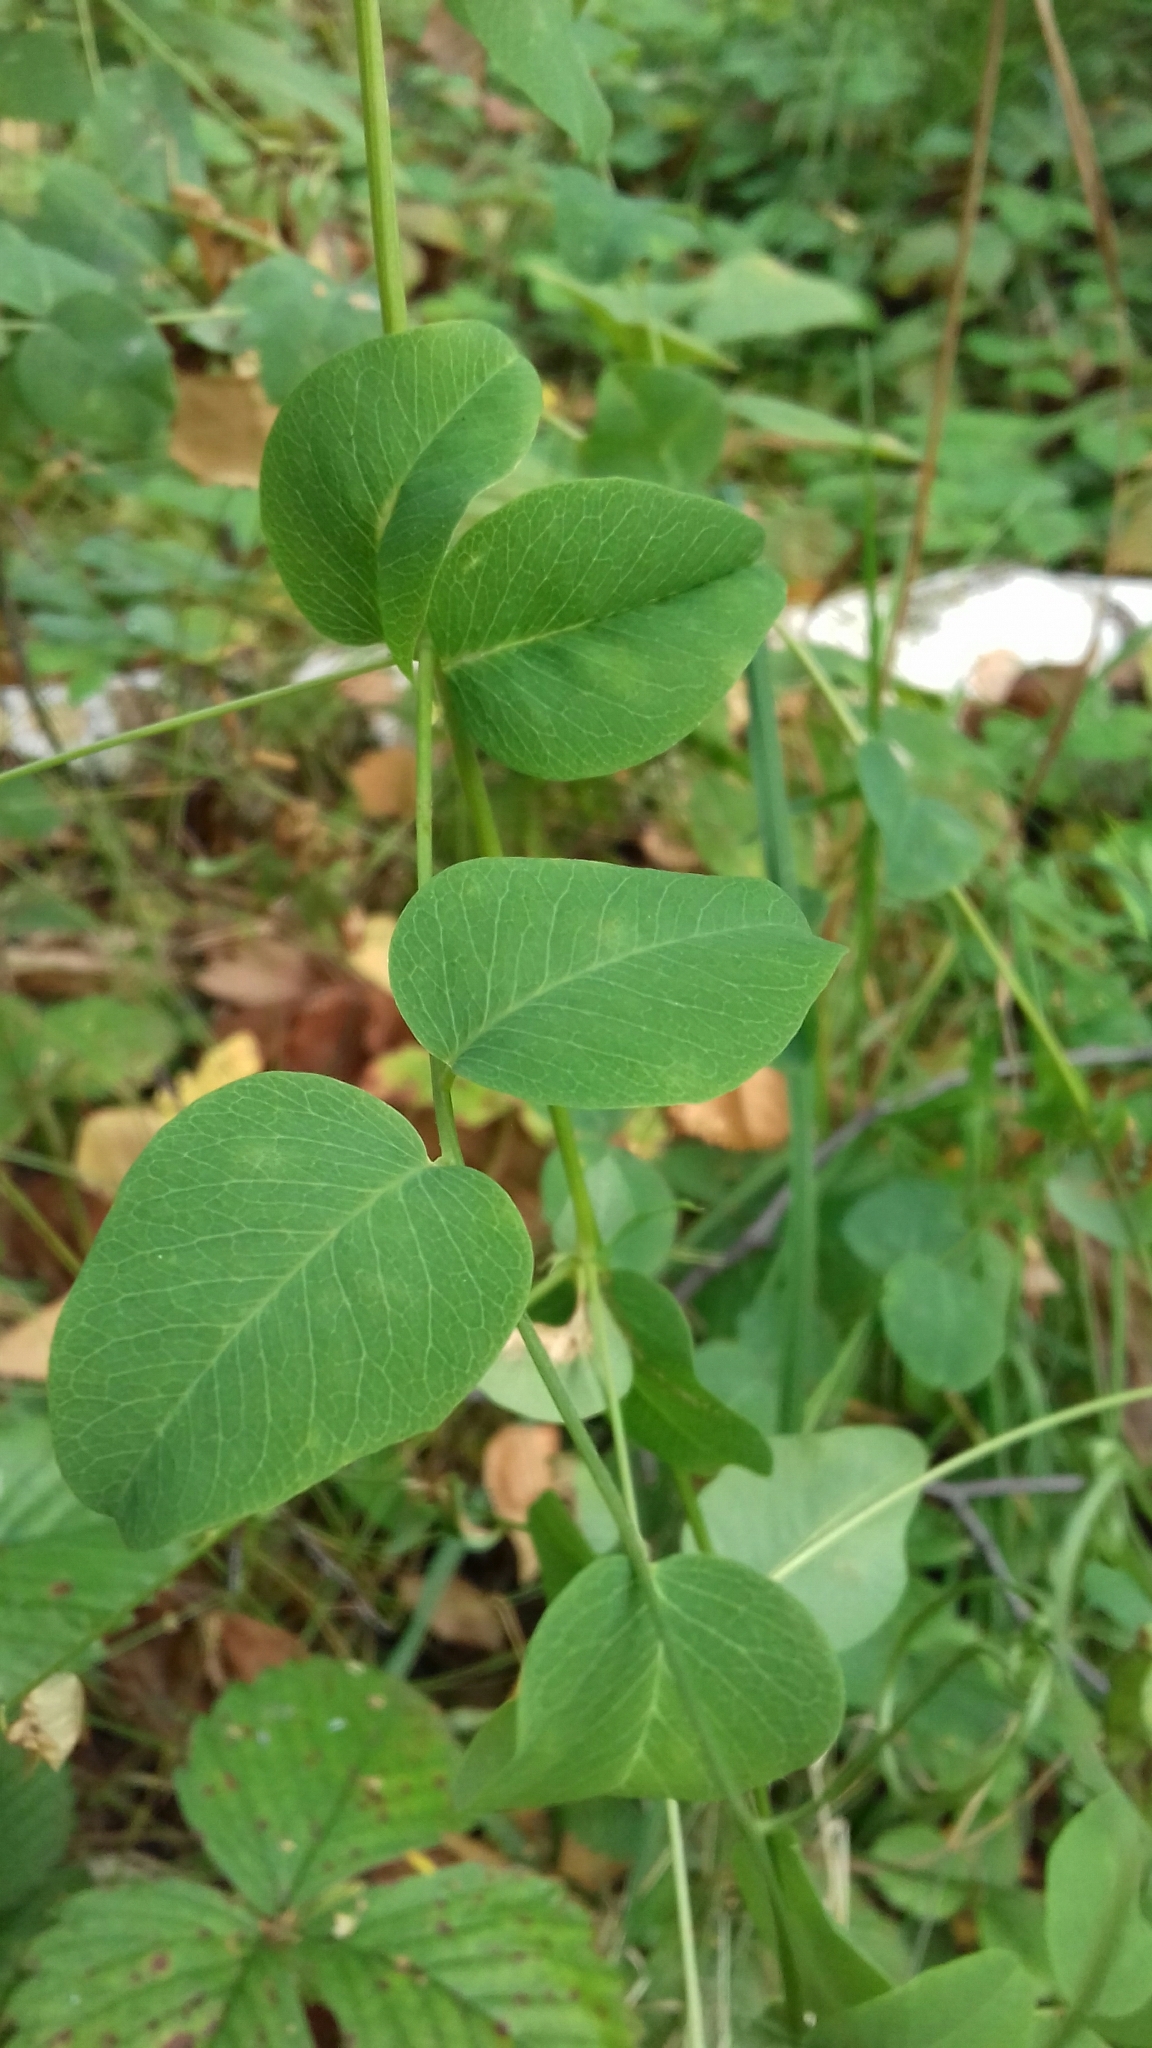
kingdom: Plantae
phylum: Tracheophyta
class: Magnoliopsida
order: Fabales
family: Fabaceae
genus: Vicia
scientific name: Vicia pisiformis
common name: Pale-flower vetch
